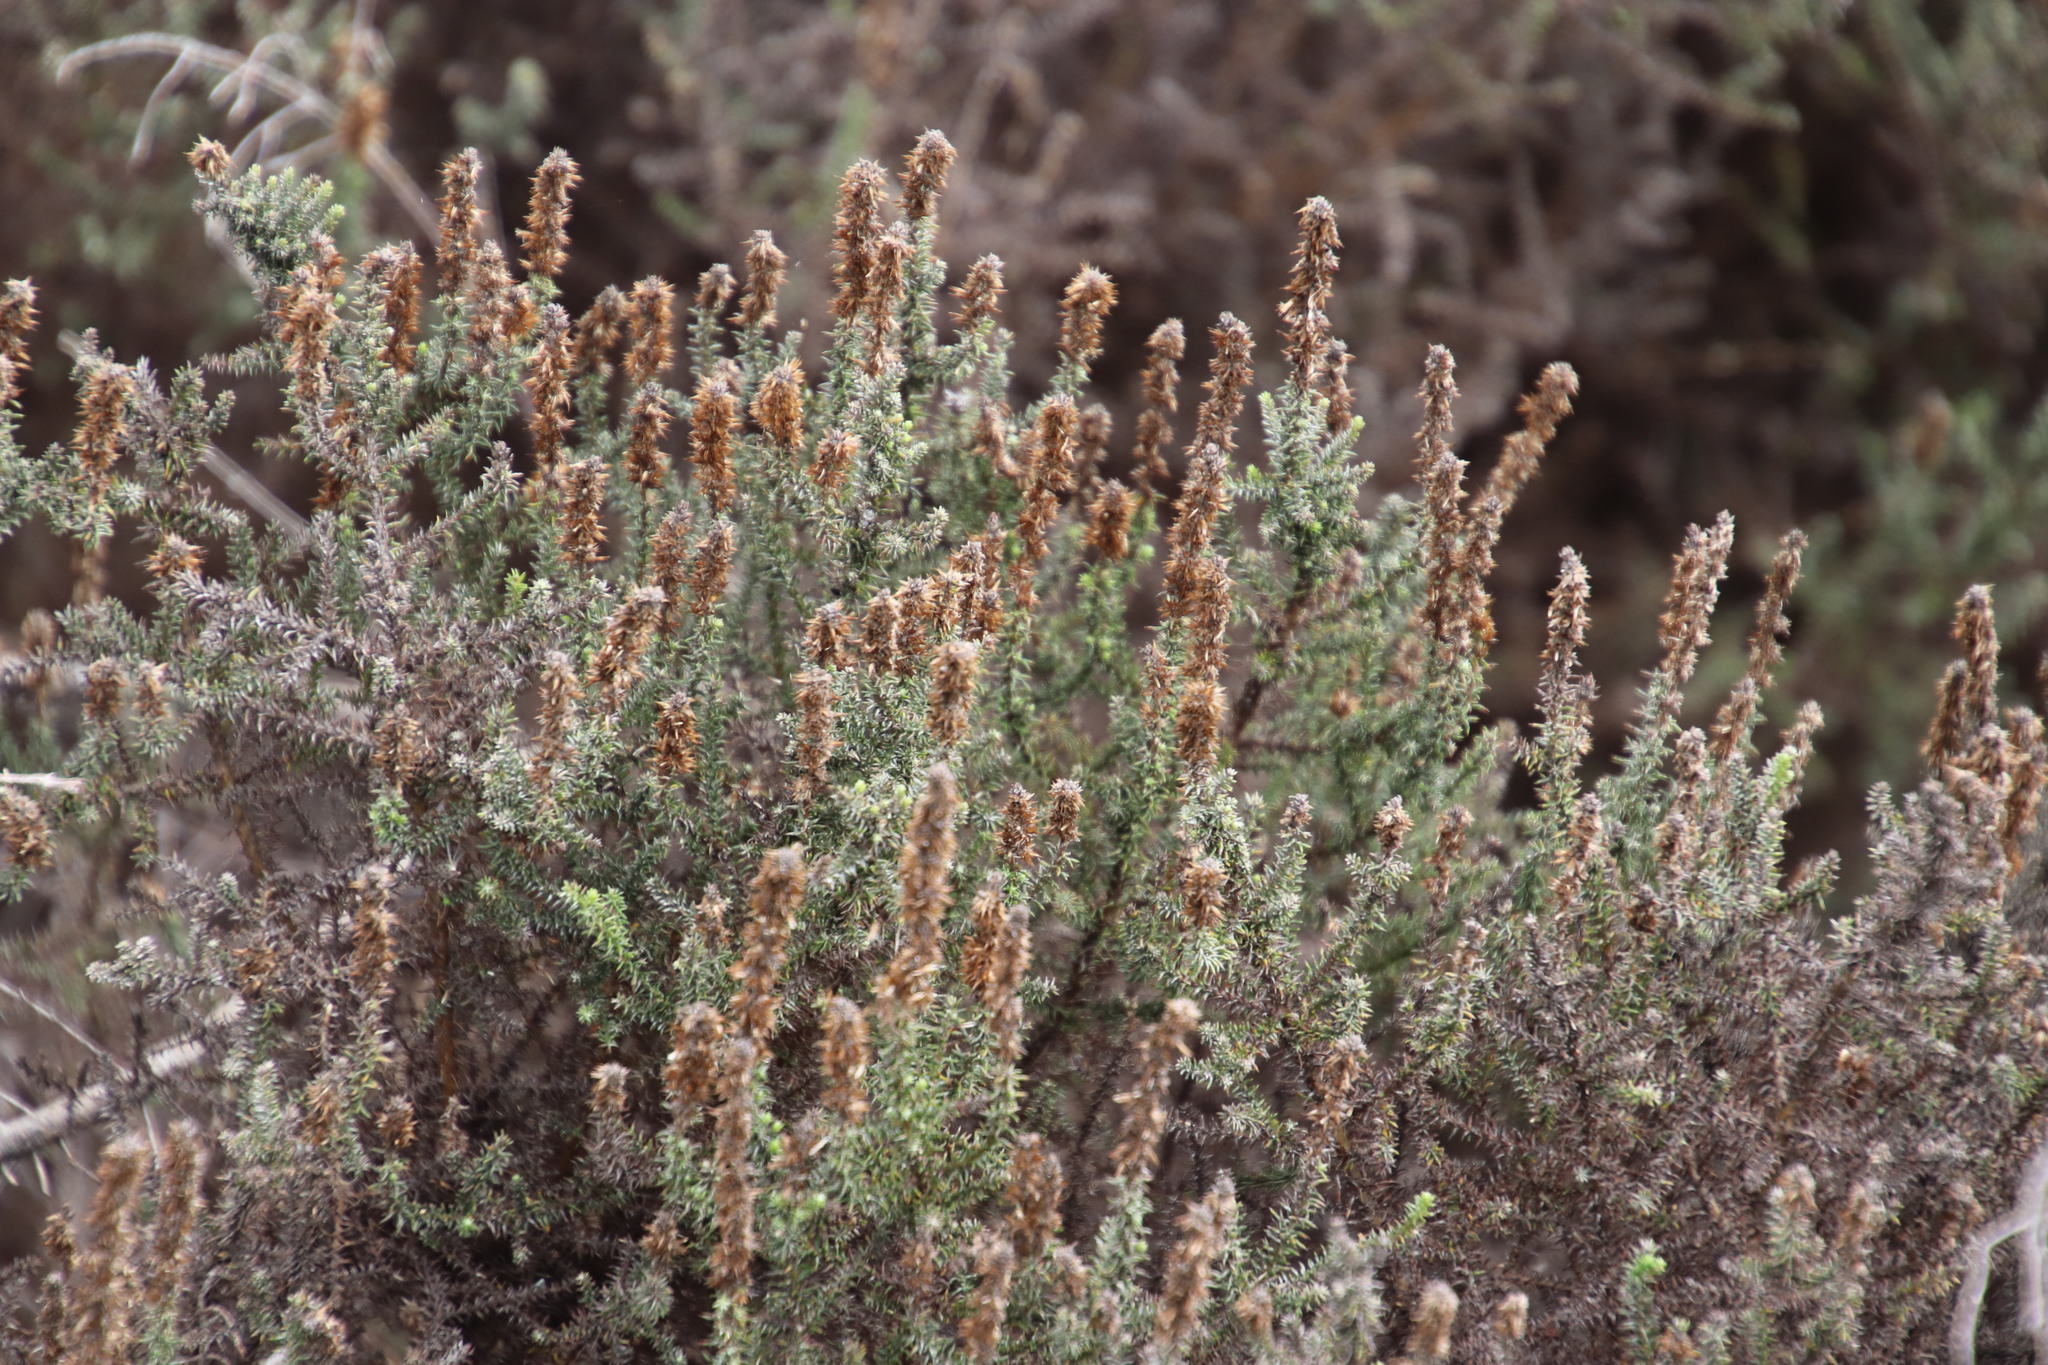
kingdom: Plantae
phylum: Tracheophyta
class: Magnoliopsida
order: Asterales
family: Asteraceae
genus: Seriphium
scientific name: Seriphium cinereum
